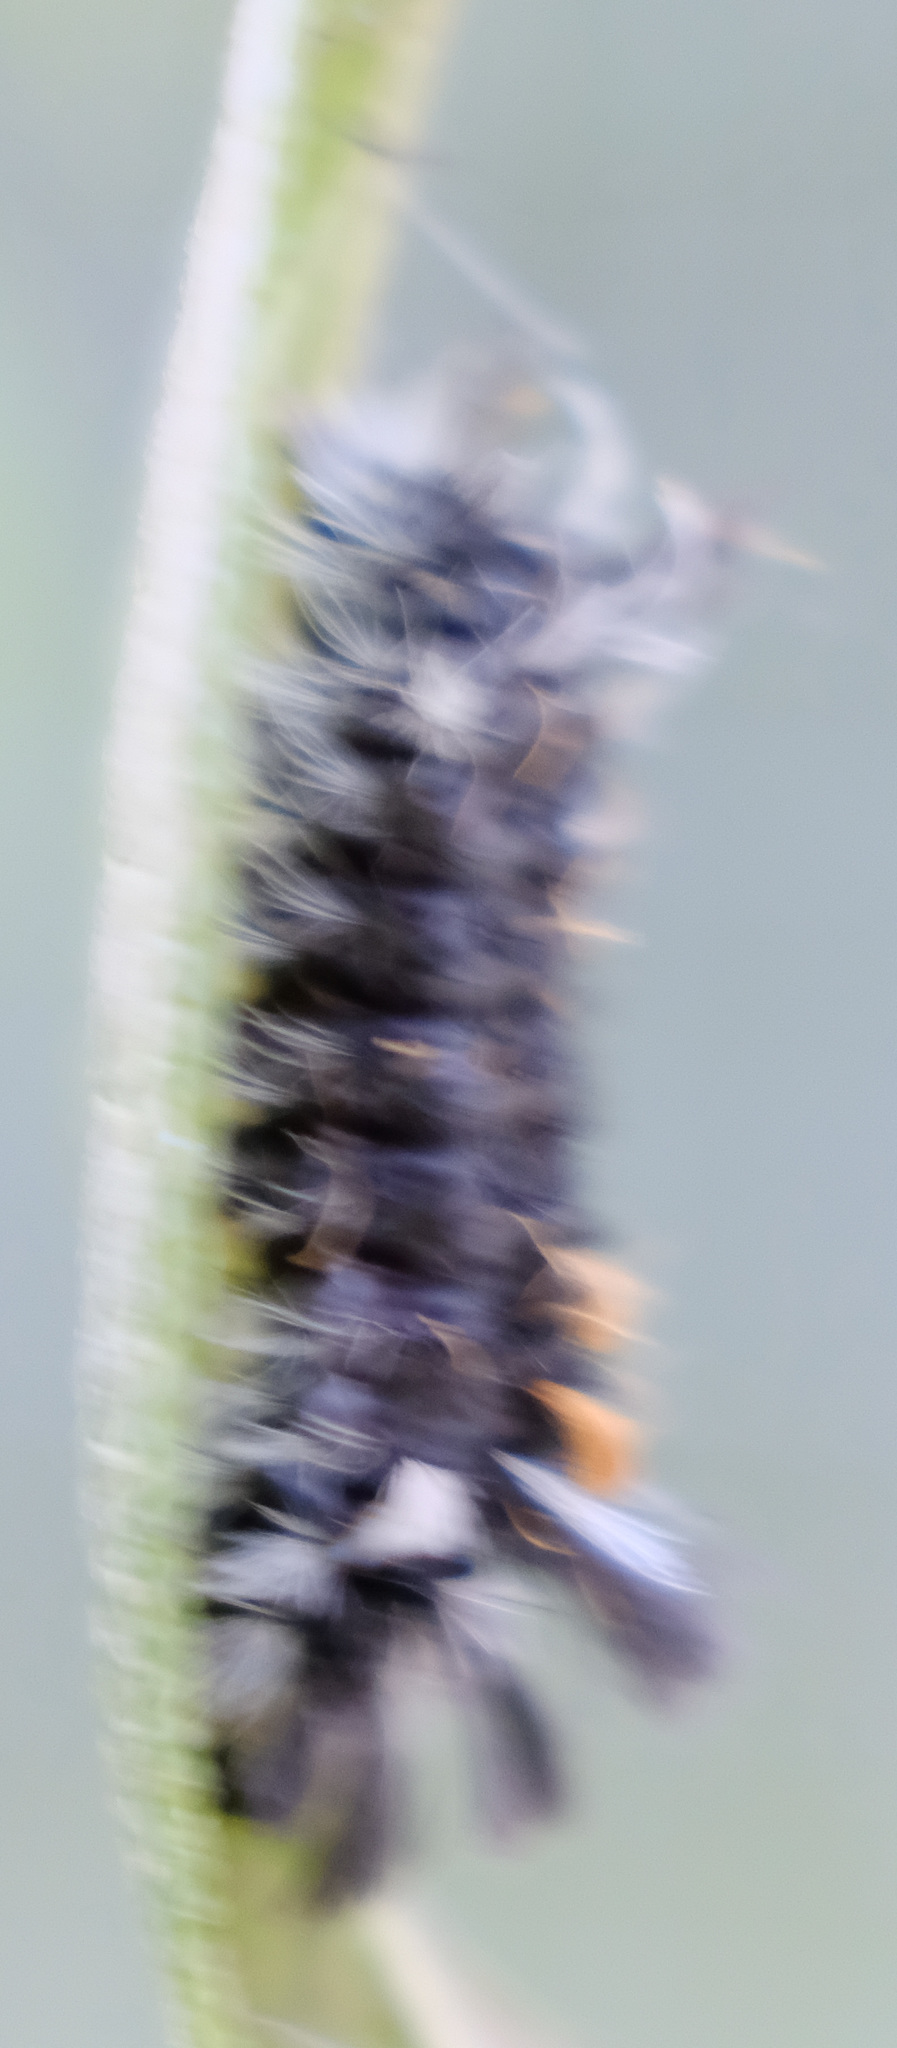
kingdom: Animalia
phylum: Arthropoda
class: Insecta
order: Lepidoptera
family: Erebidae
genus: Euchaetes
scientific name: Euchaetes egle
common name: Milkweed tussock moth
